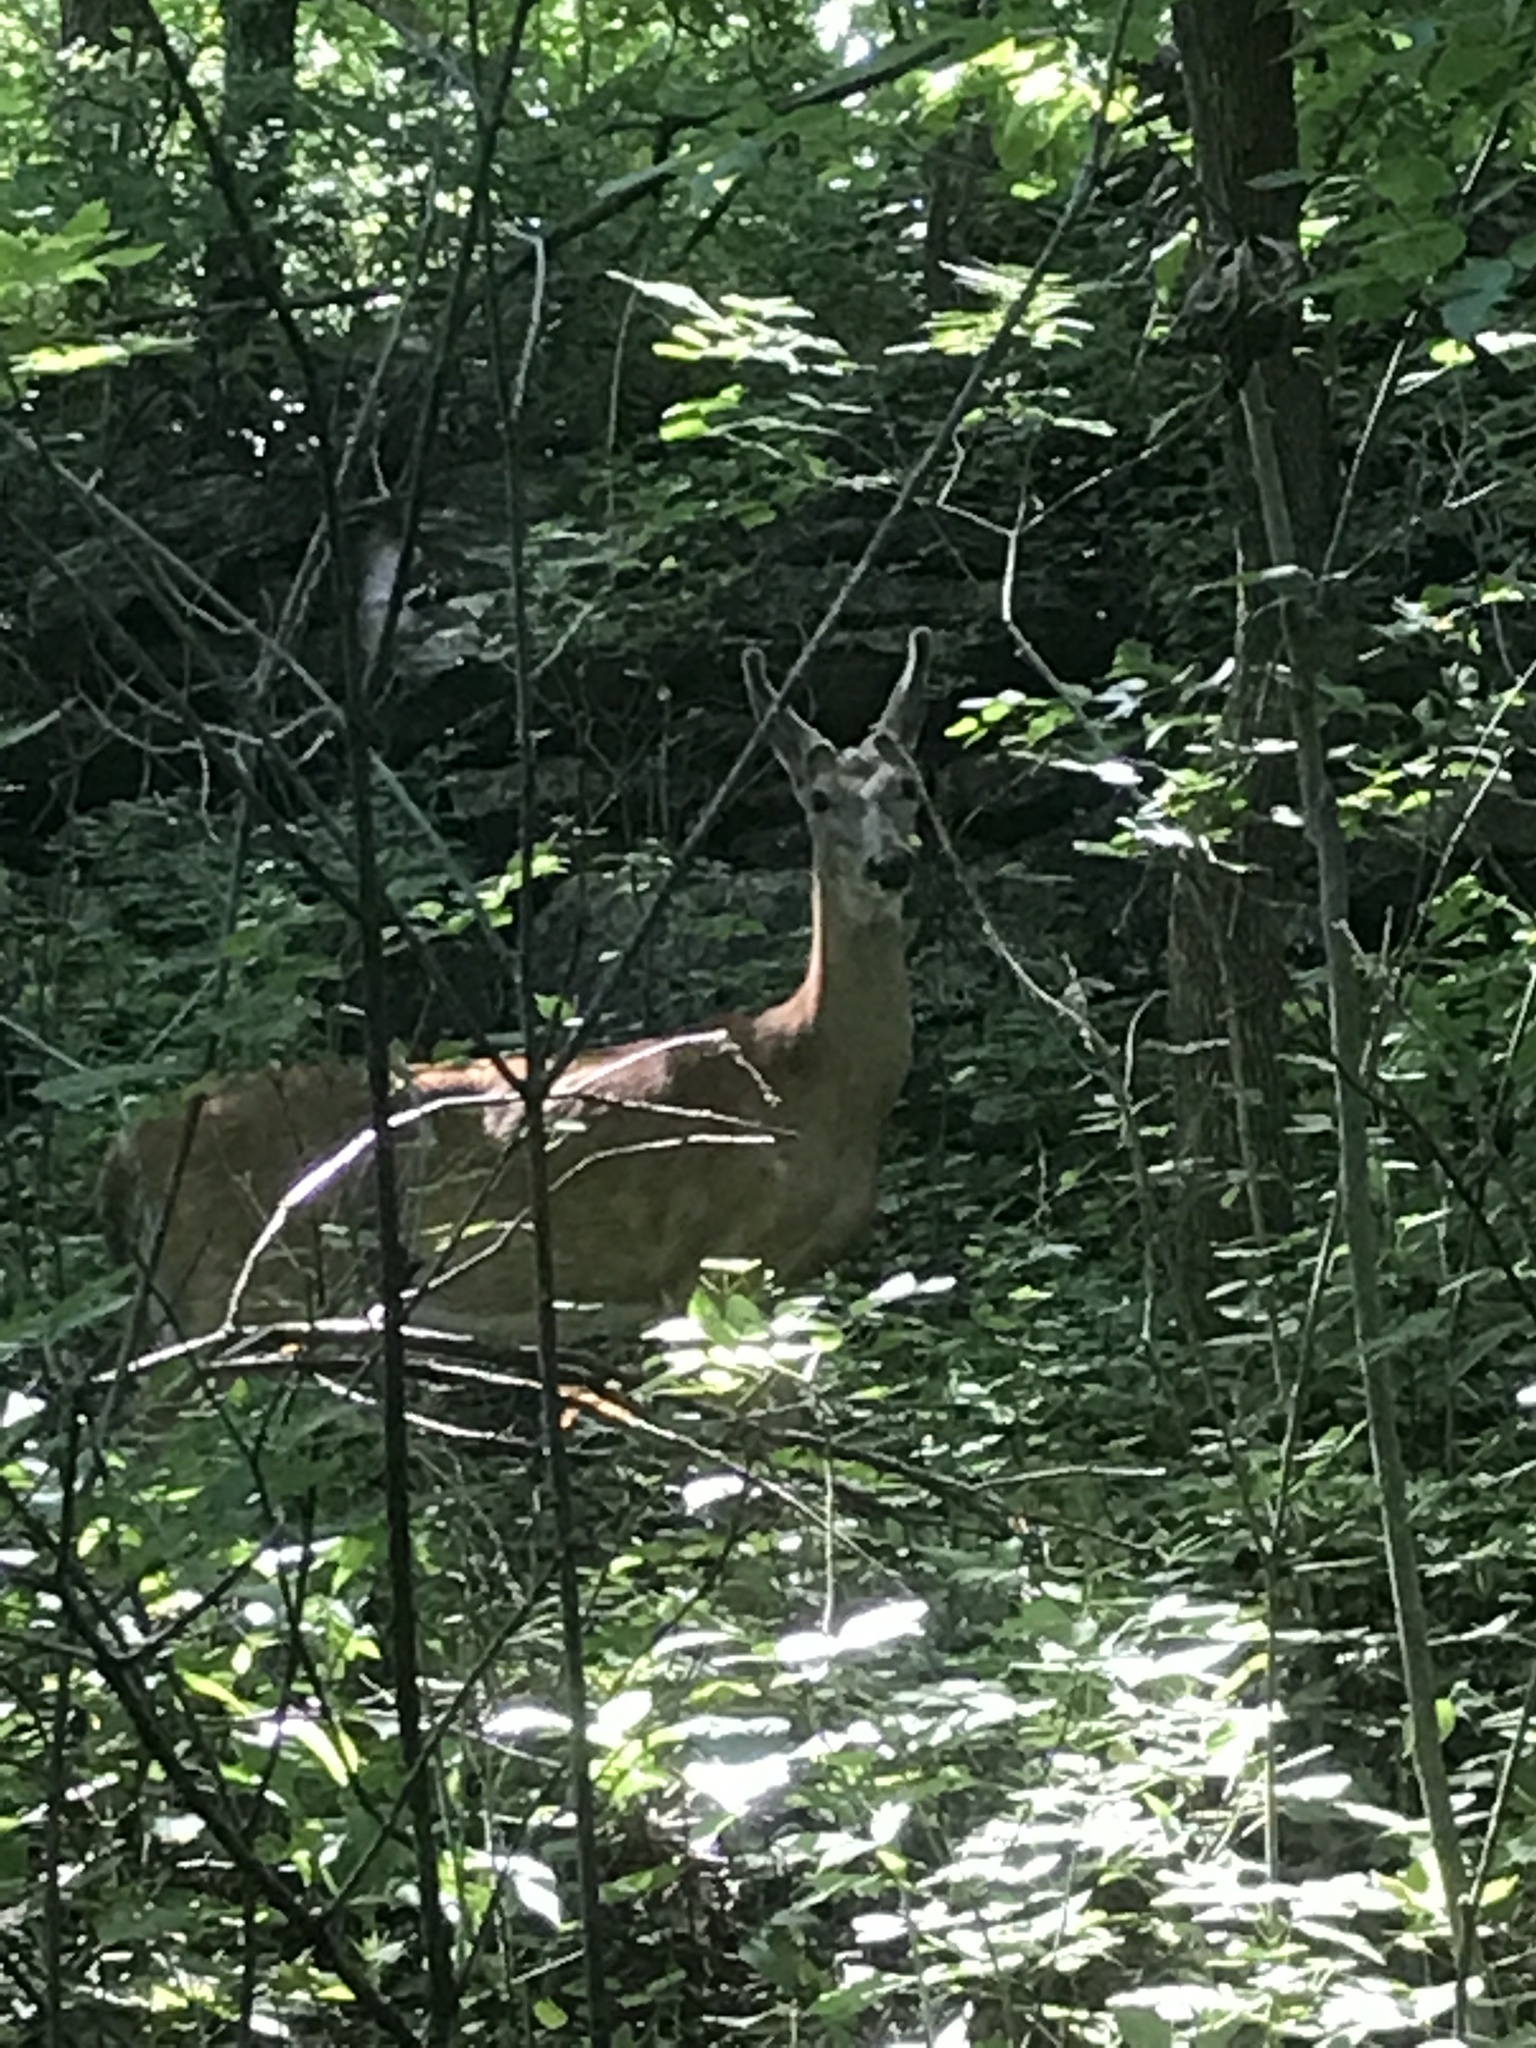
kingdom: Animalia
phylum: Chordata
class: Mammalia
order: Artiodactyla
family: Cervidae
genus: Odocoileus
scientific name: Odocoileus virginianus
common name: White-tailed deer
